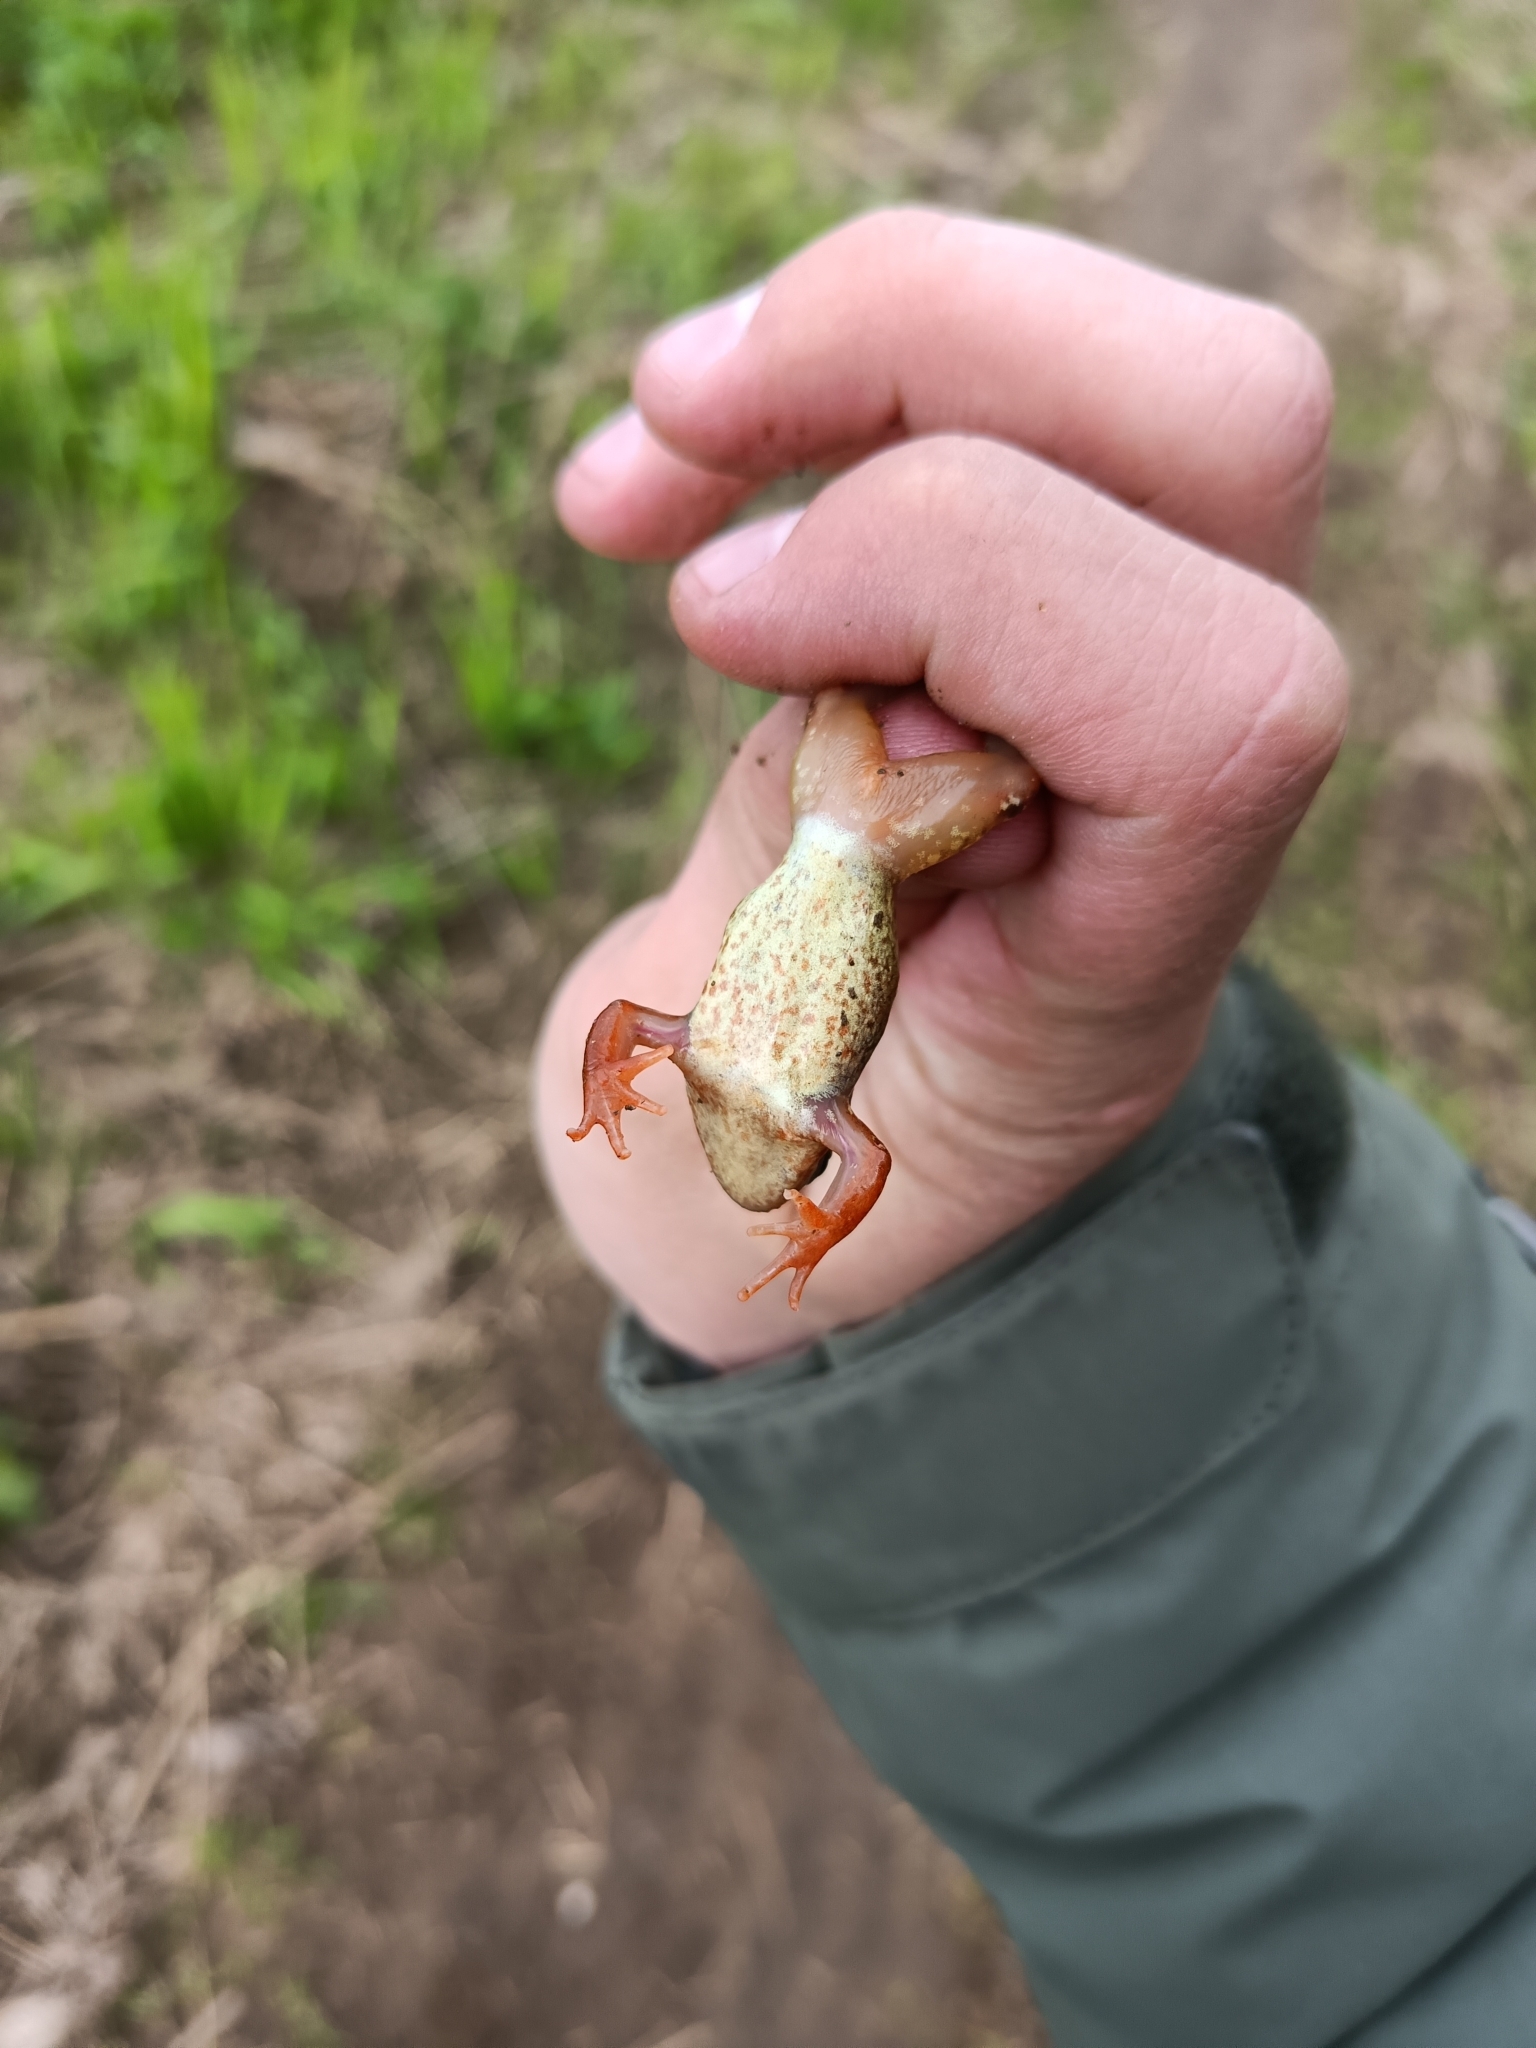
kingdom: Animalia
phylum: Chordata
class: Amphibia
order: Anura
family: Ranidae
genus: Rana
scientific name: Rana temporaria
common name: Common frog
